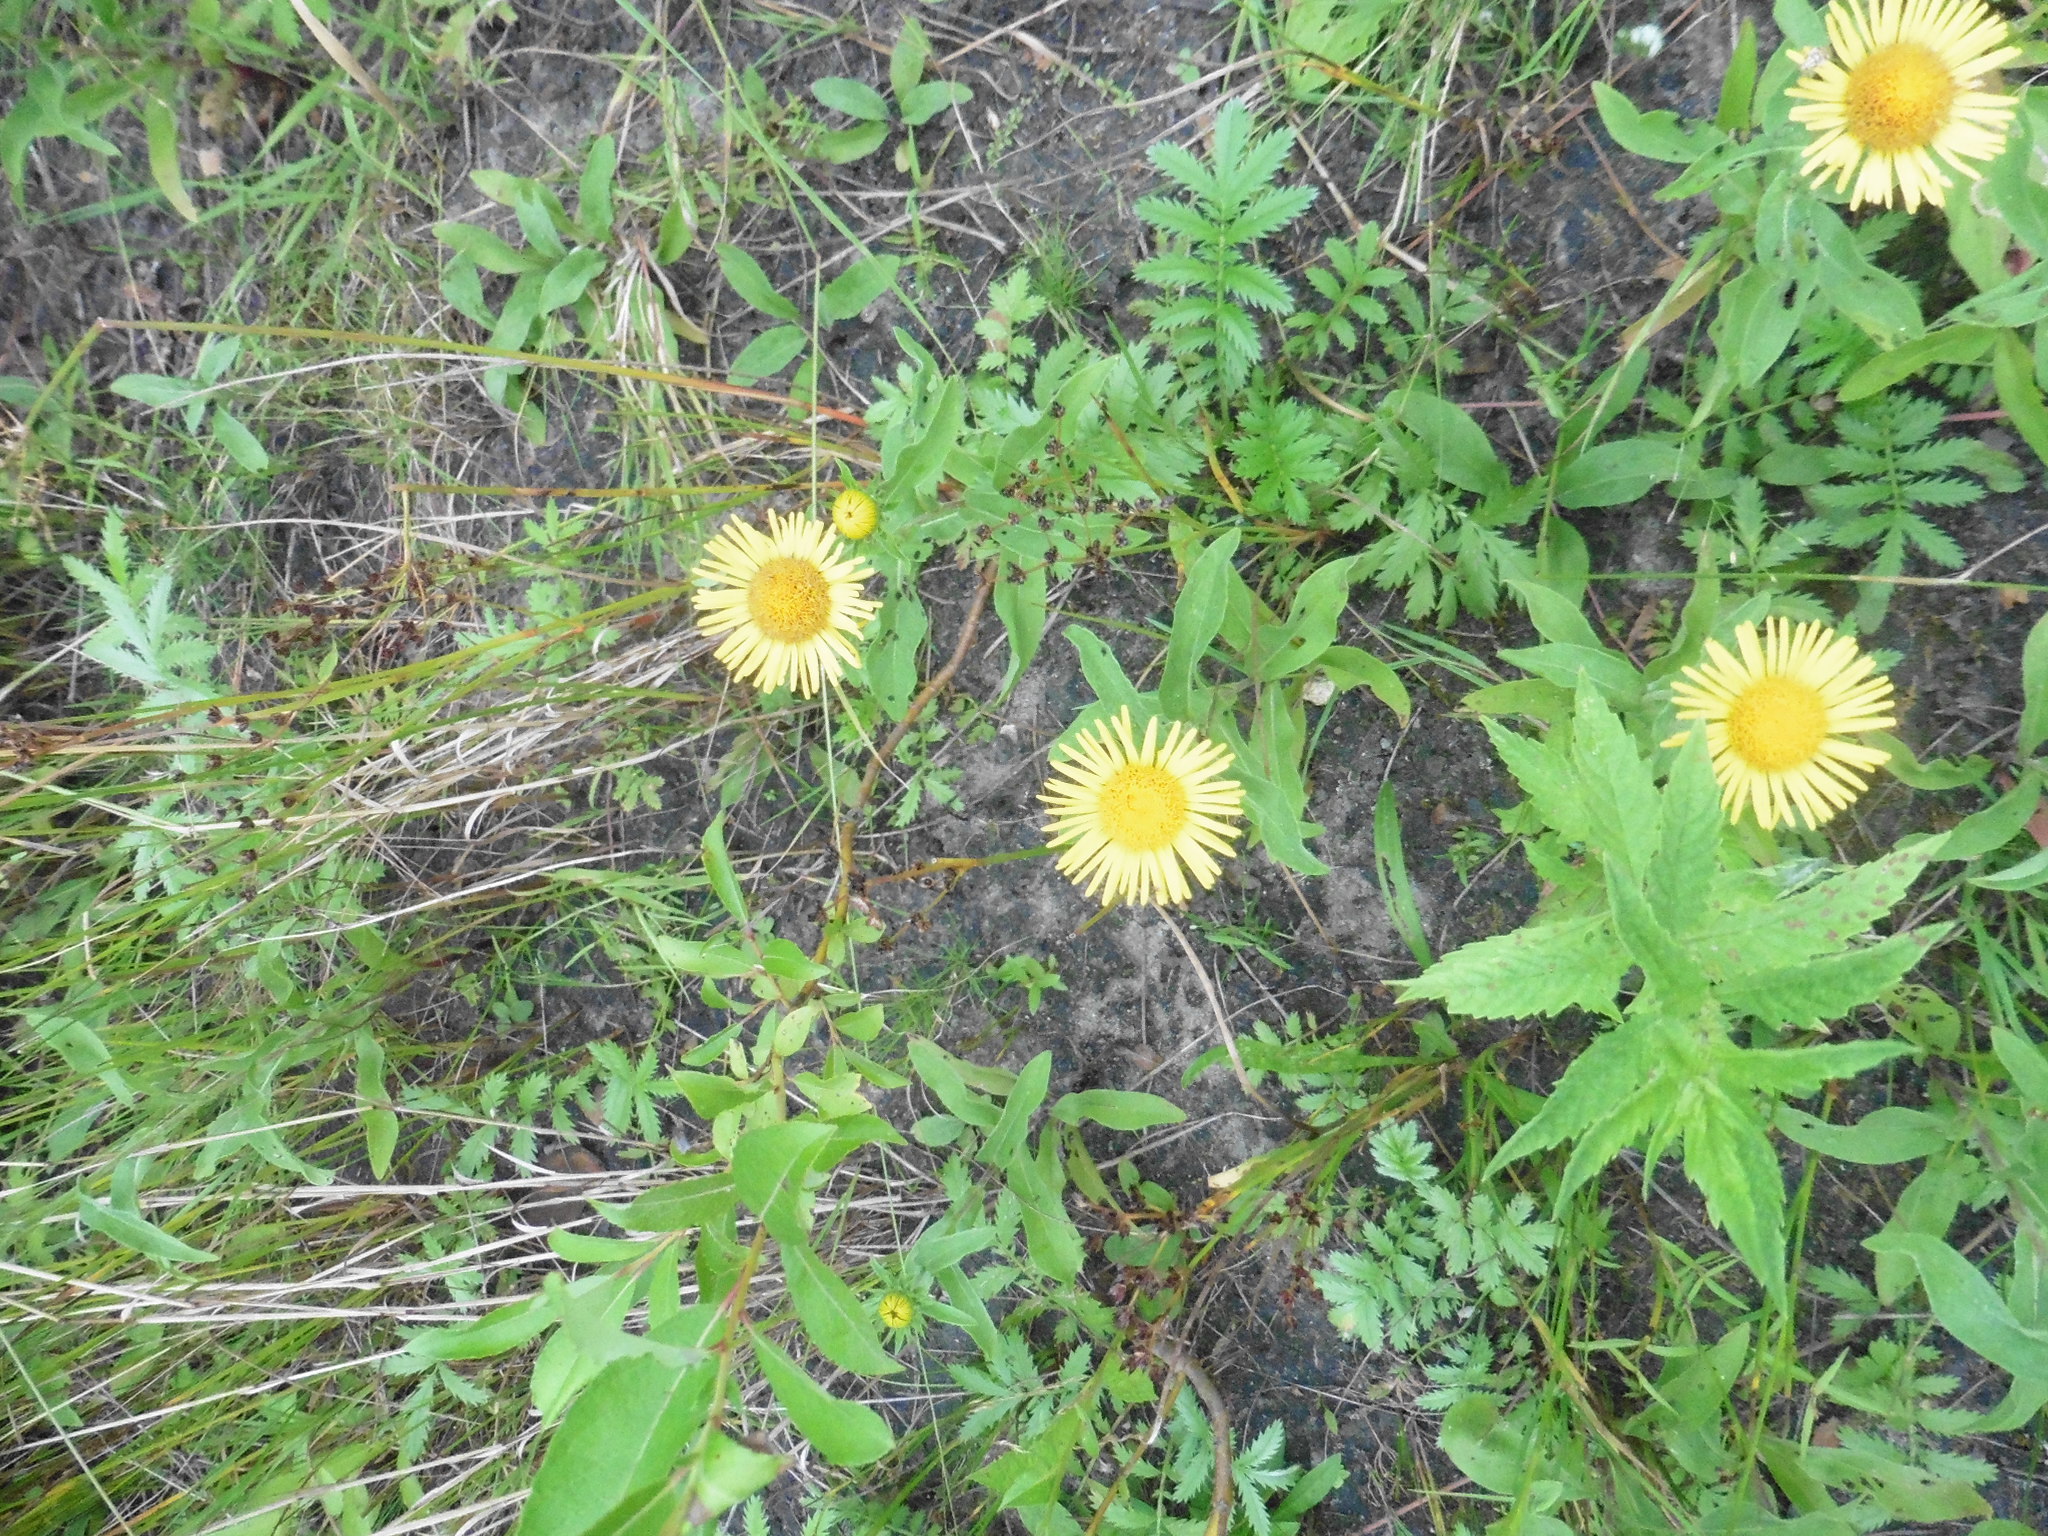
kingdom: Plantae
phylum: Tracheophyta
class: Magnoliopsida
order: Asterales
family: Asteraceae
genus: Pentanema
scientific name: Pentanema britannicum
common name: British elecampane
